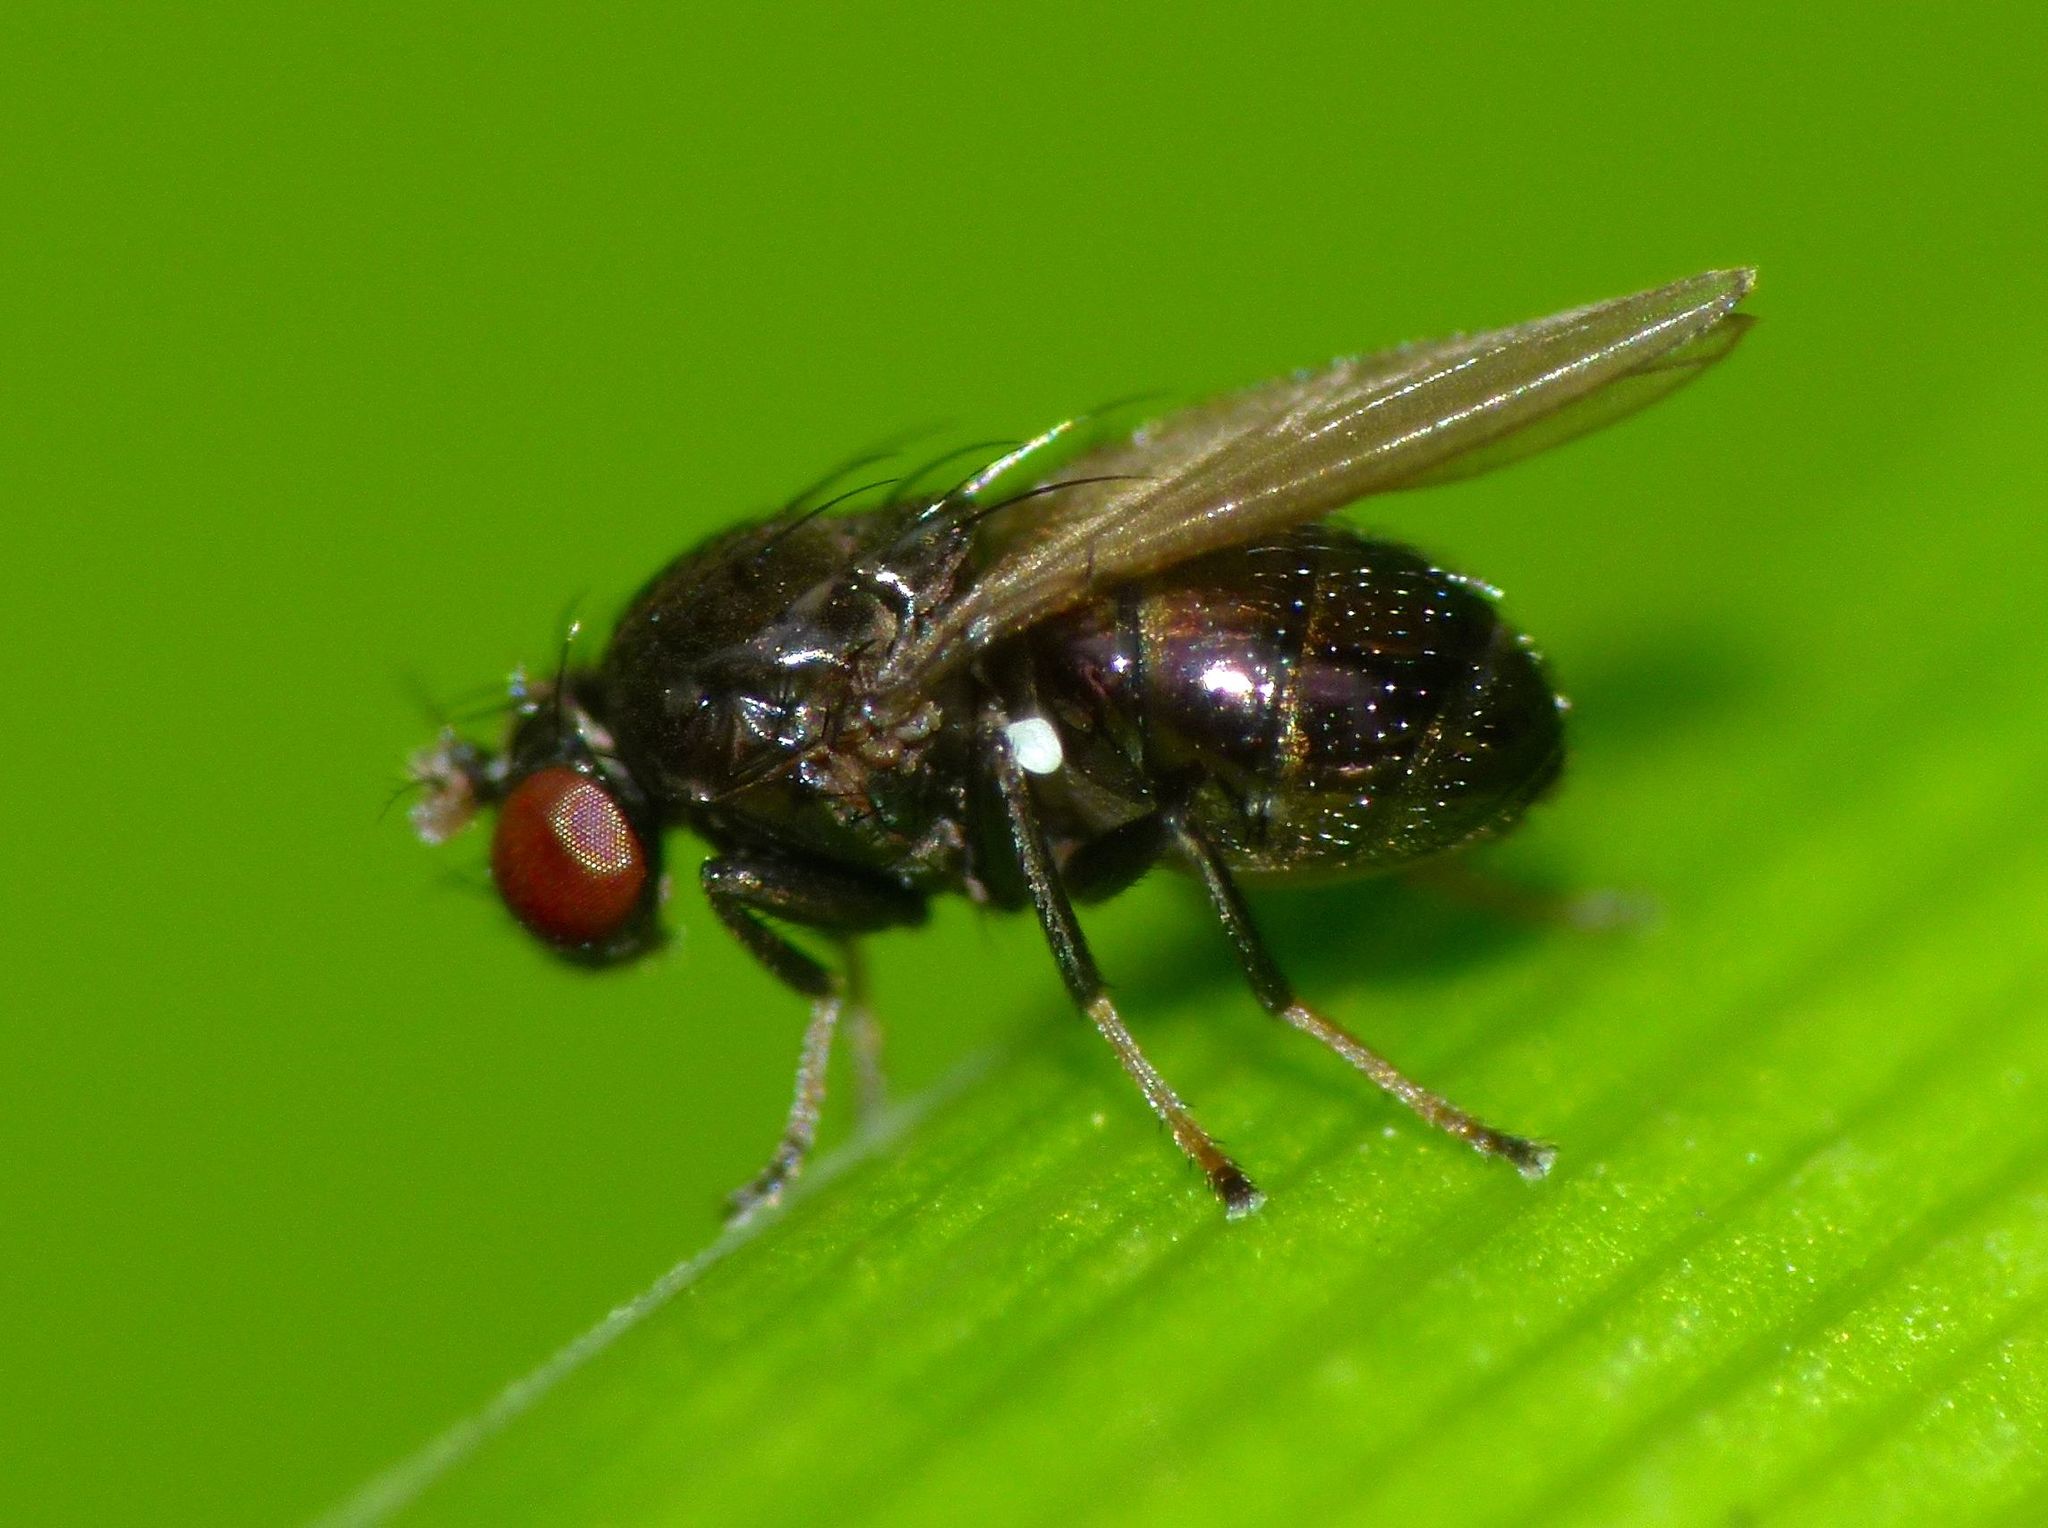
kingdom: Animalia
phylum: Arthropoda
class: Insecta
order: Diptera
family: Ephydridae
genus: Diasemocera
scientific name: Diasemocera metallica
